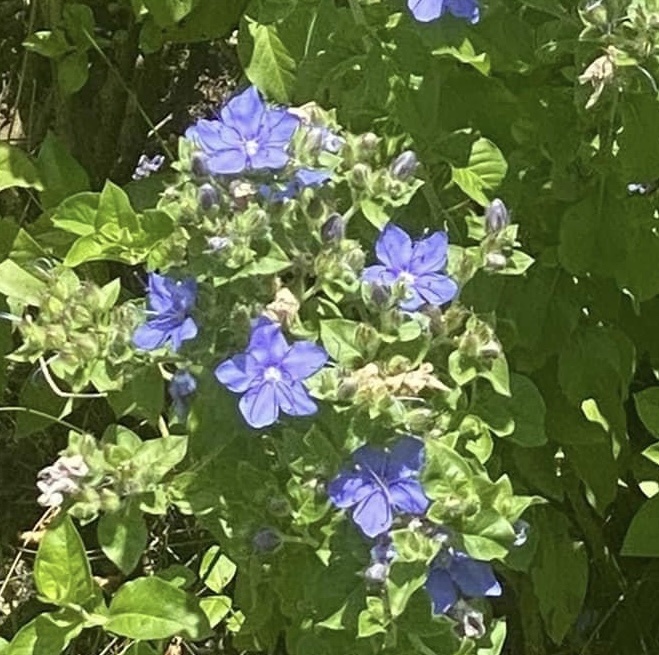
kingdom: Plantae
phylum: Tracheophyta
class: Magnoliopsida
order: Solanales
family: Hydroleaceae
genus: Hydrolea
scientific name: Hydrolea ovata
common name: Ovate false fiddleleaf
